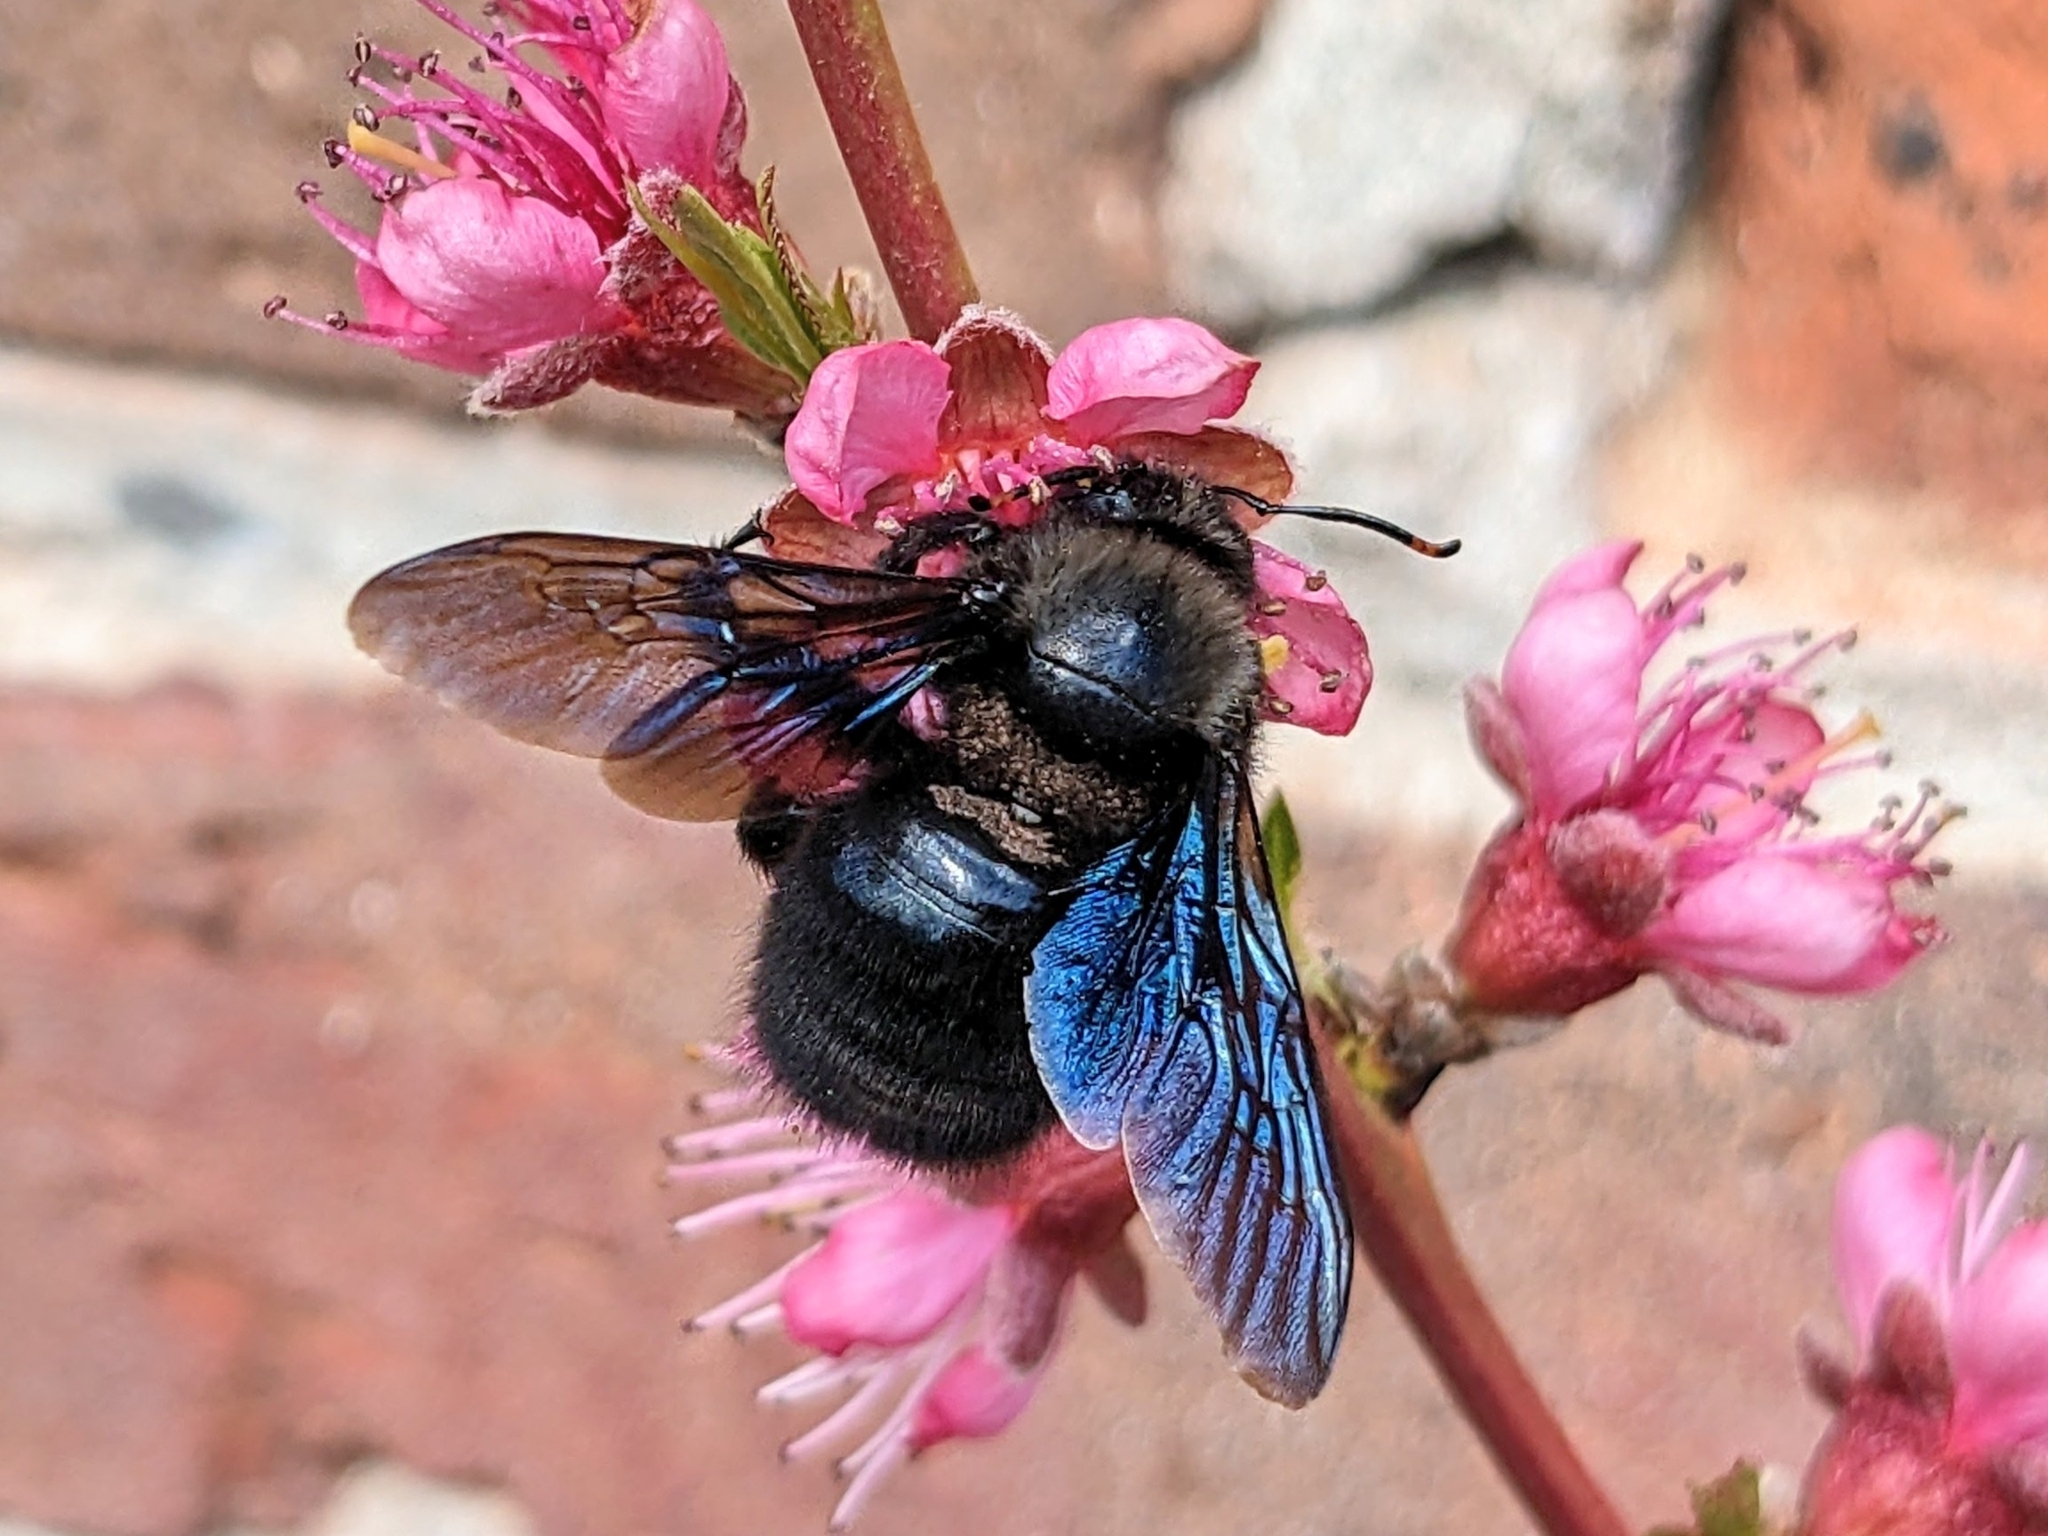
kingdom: Animalia
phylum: Arthropoda
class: Insecta
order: Hymenoptera
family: Apidae
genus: Xylocopa
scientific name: Xylocopa violacea
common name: Violet carpenter bee
